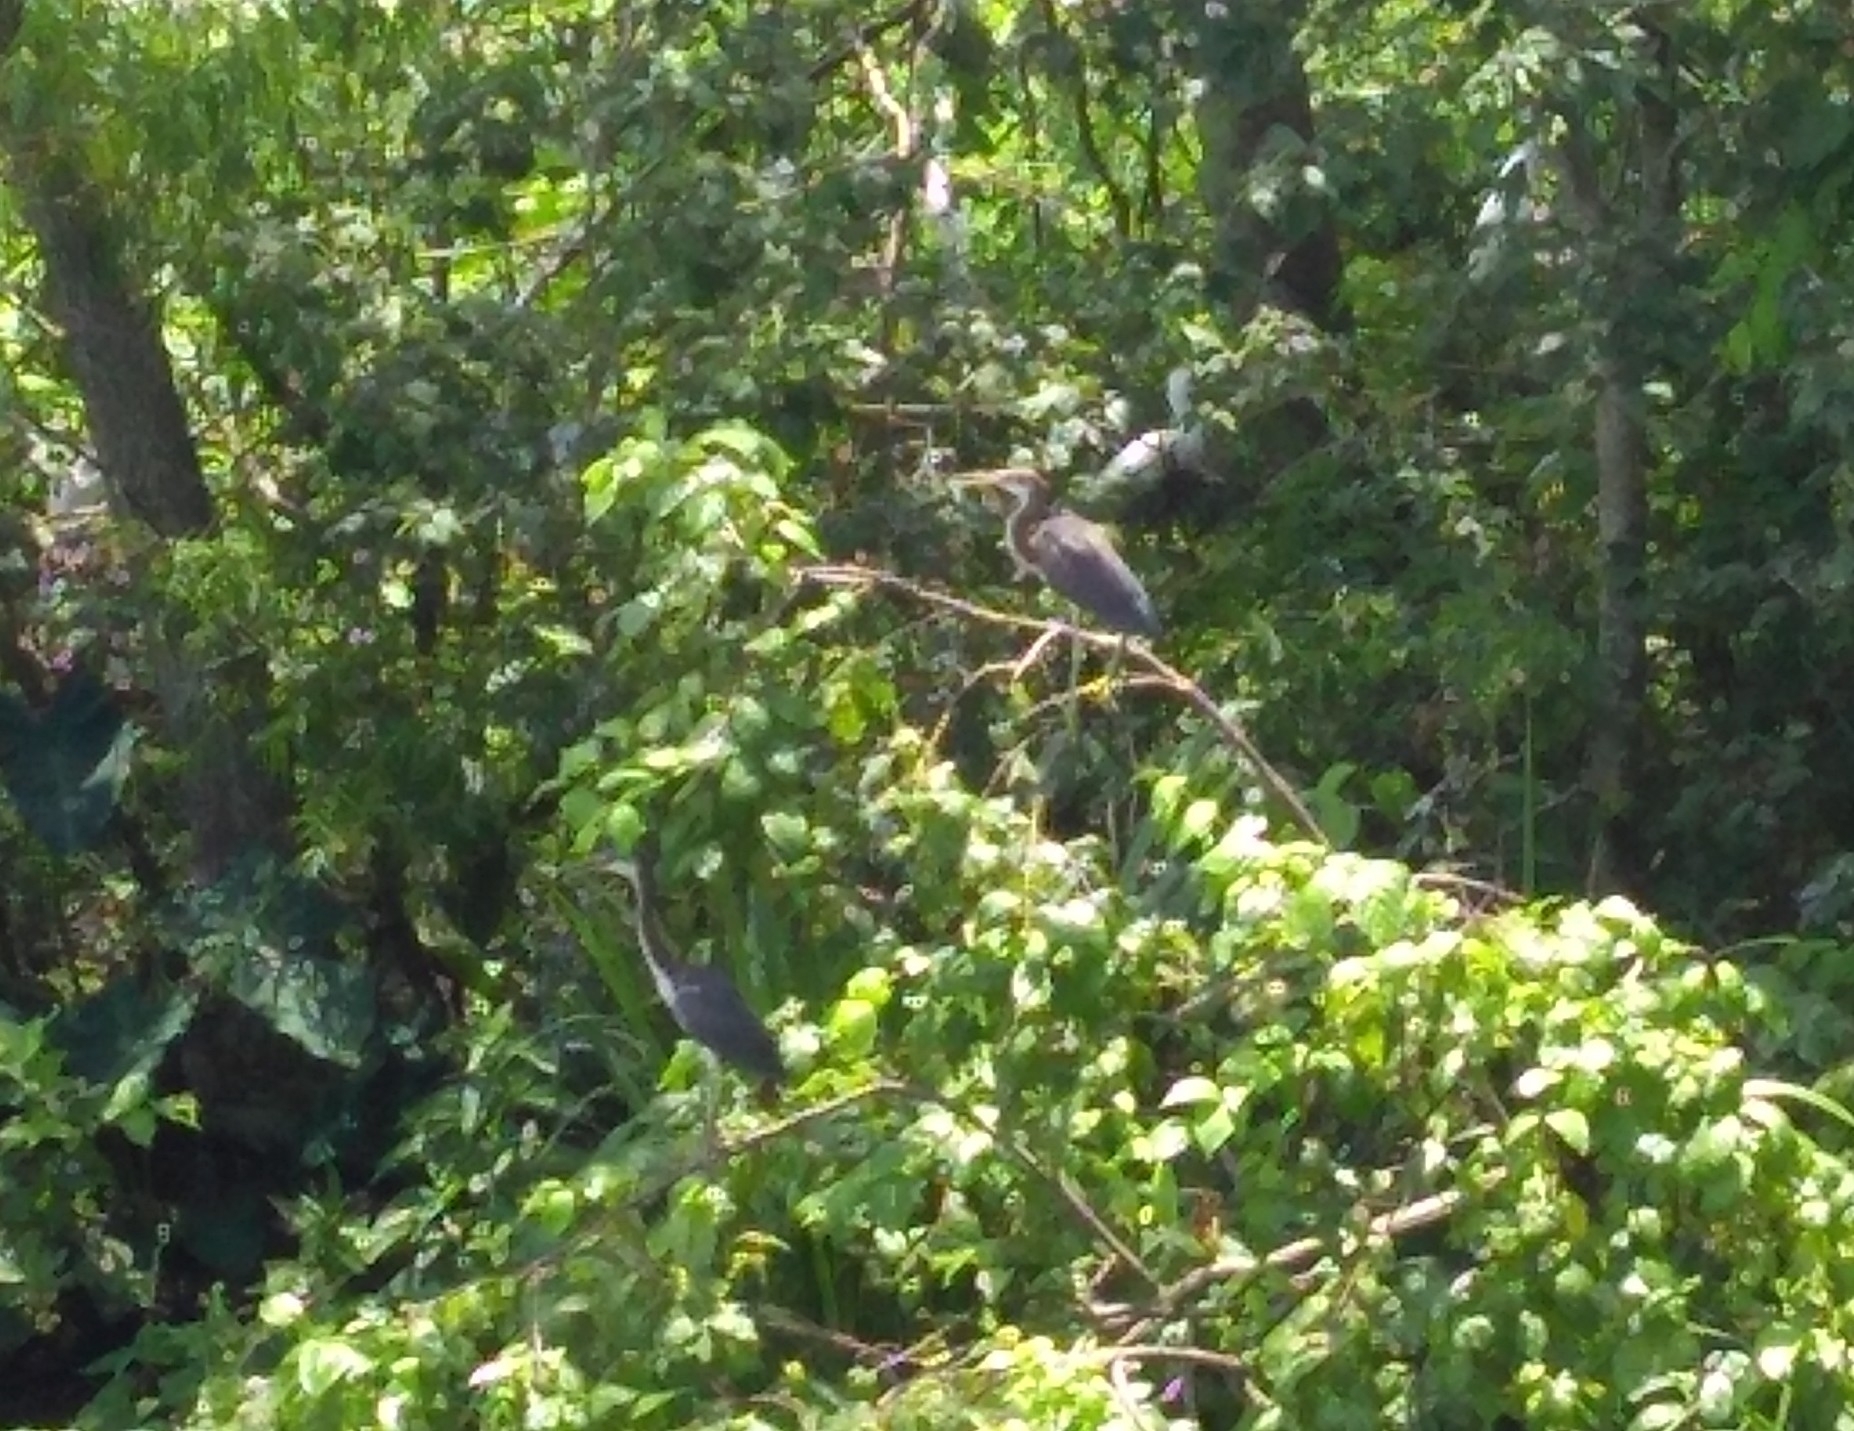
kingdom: Animalia
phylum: Chordata
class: Aves
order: Pelecaniformes
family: Ardeidae
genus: Egretta
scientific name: Egretta tricolor
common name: Tricolored heron
